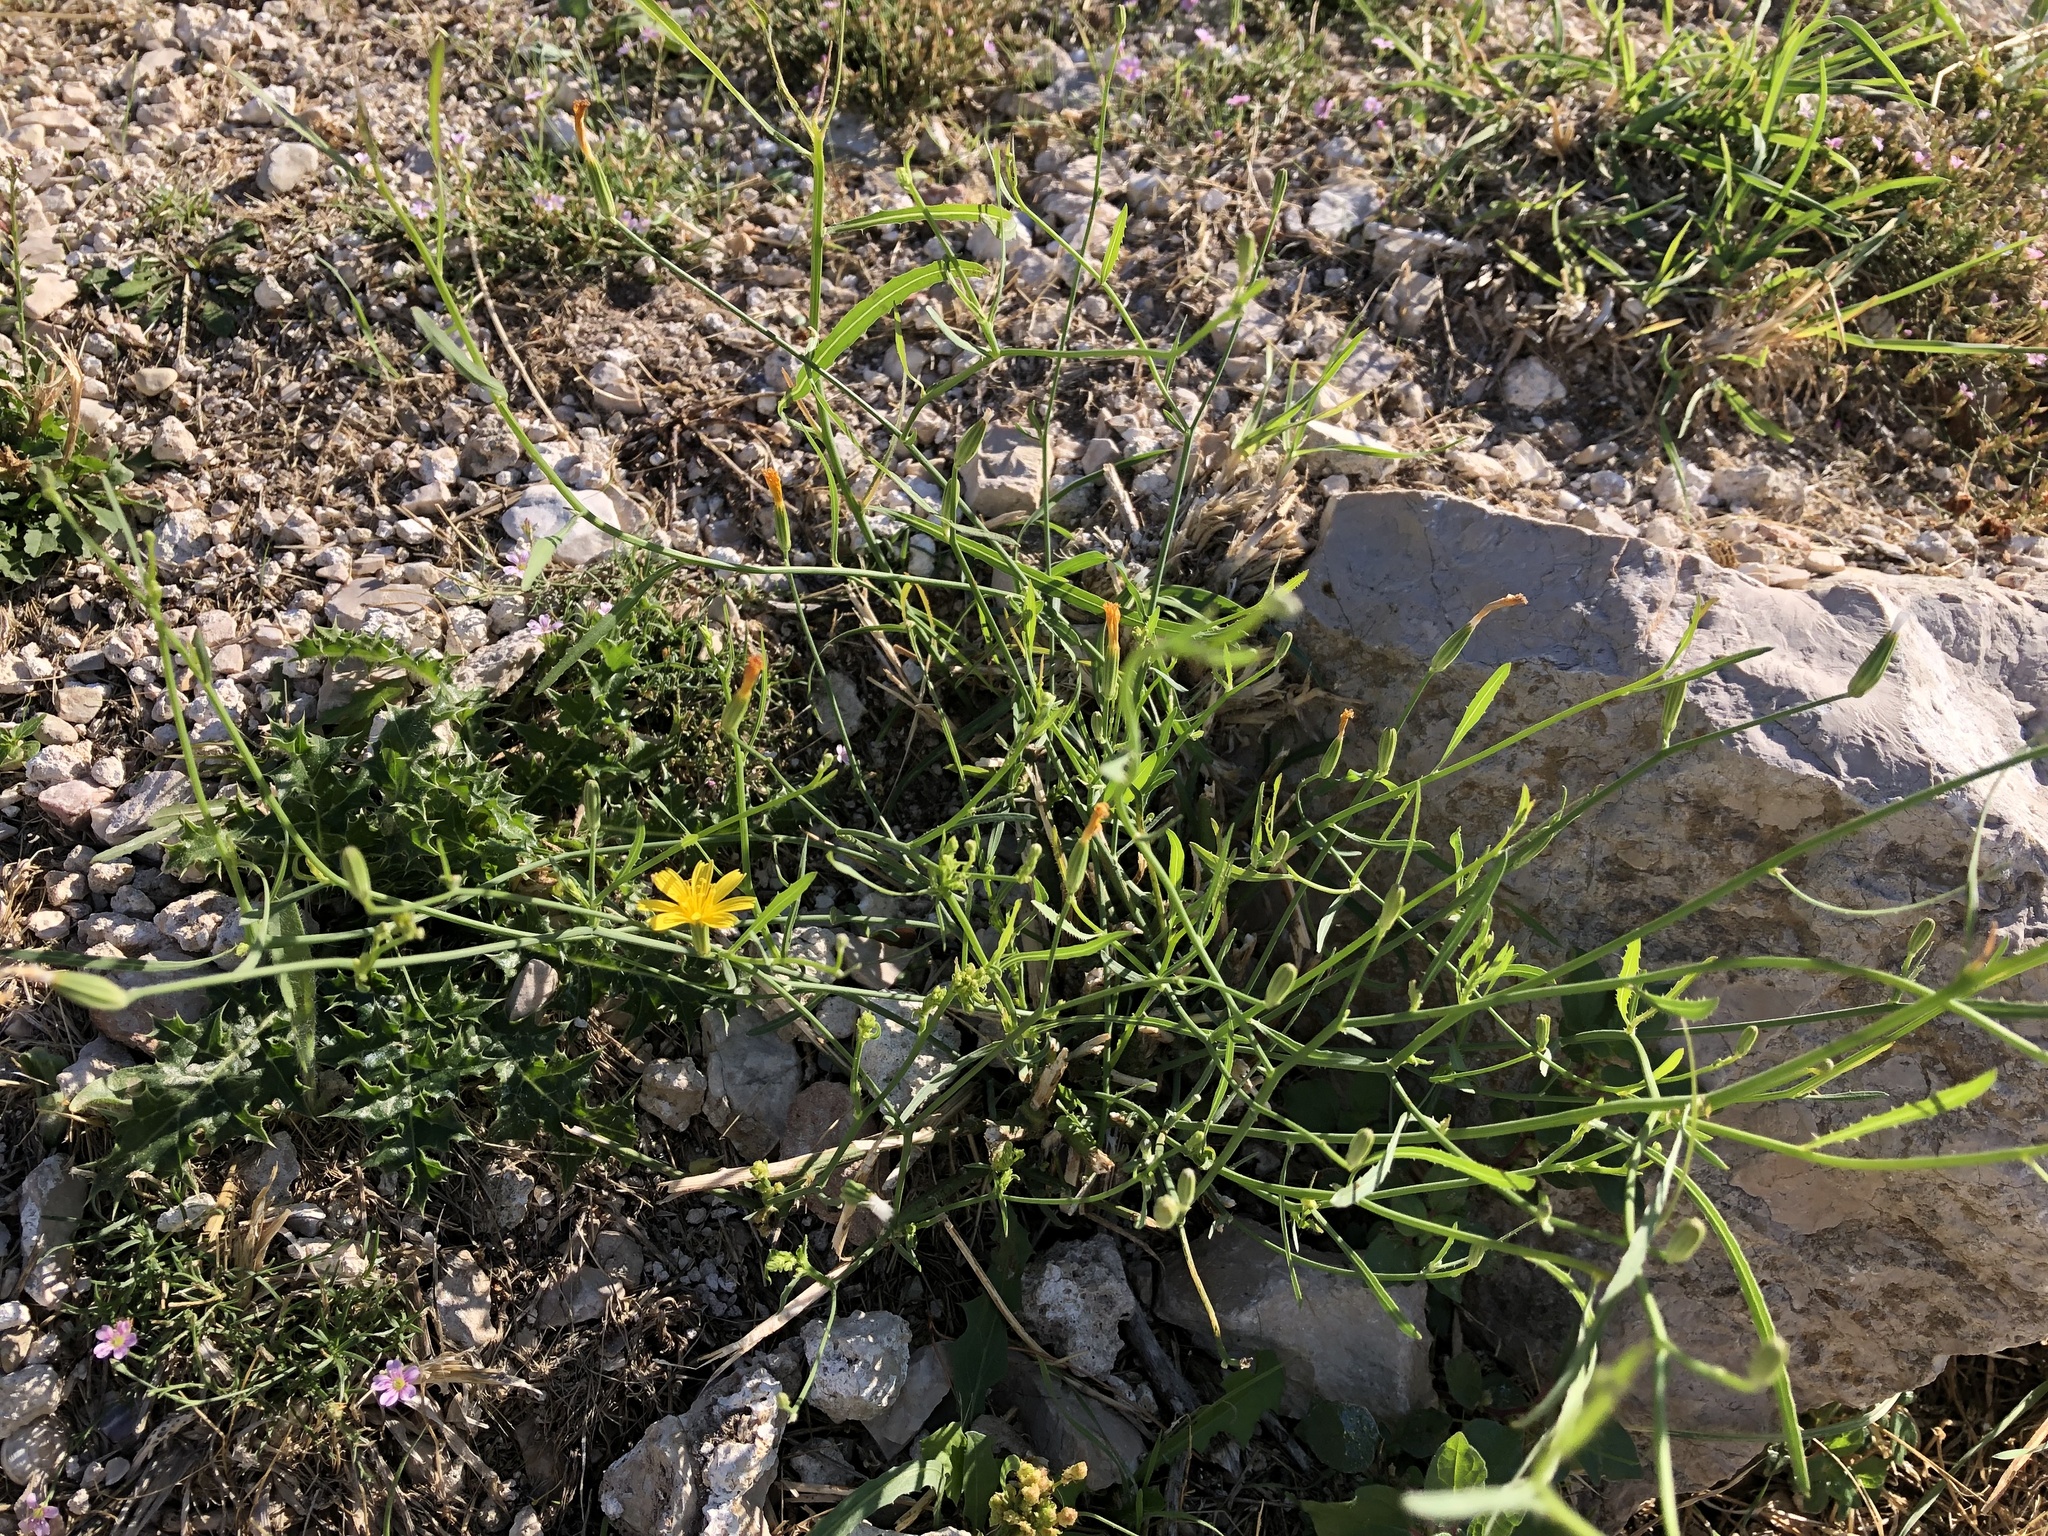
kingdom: Plantae
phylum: Tracheophyta
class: Magnoliopsida
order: Asterales
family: Asteraceae
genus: Chondrilla
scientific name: Chondrilla juncea
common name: Skeleton weed
